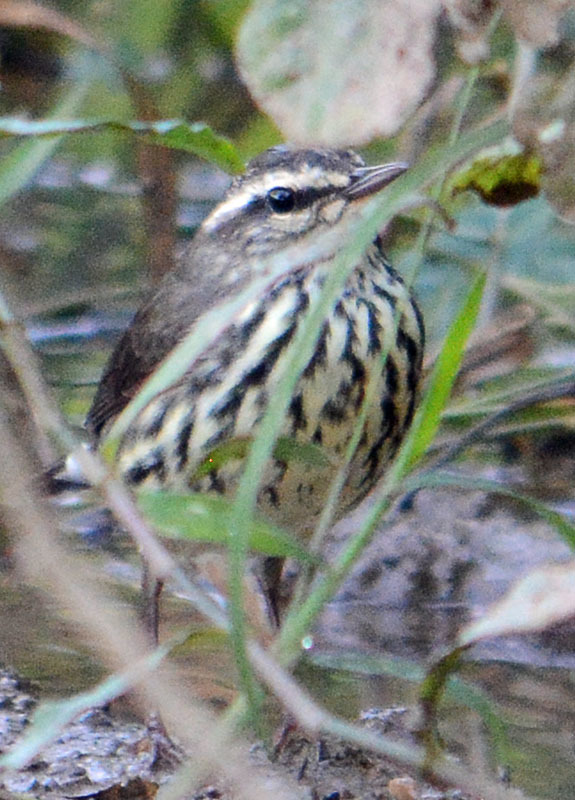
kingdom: Animalia
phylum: Chordata
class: Aves
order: Passeriformes
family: Parulidae
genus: Parkesia
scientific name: Parkesia noveboracensis
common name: Northern waterthrush
